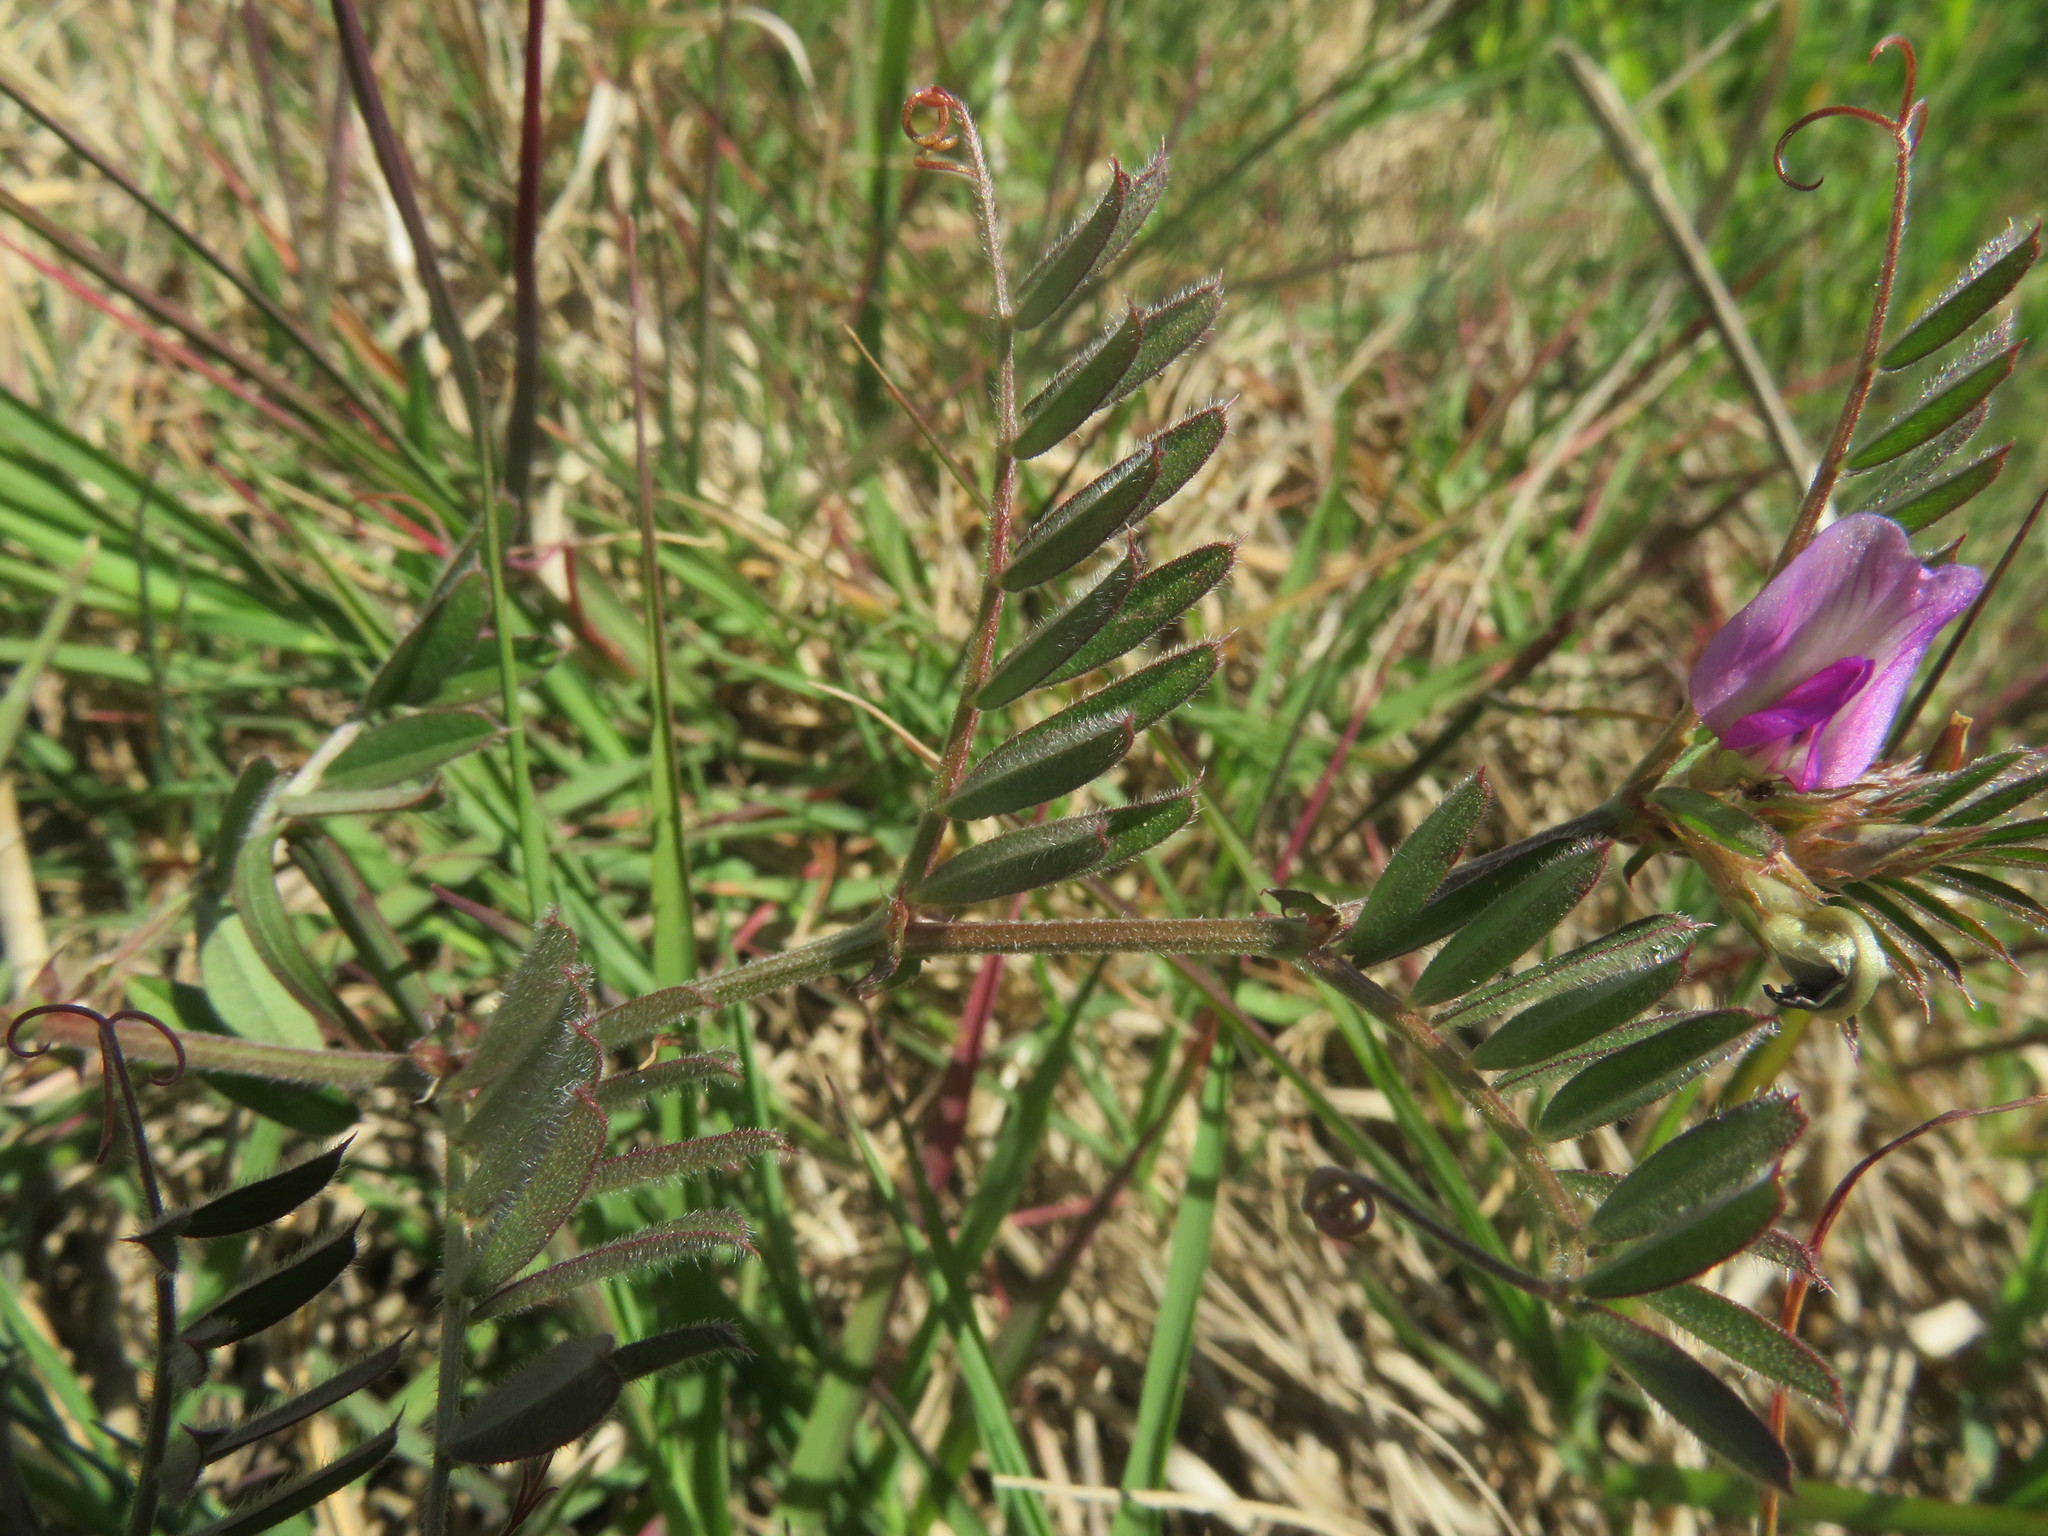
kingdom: Plantae
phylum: Tracheophyta
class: Magnoliopsida
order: Fabales
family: Fabaceae
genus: Vicia
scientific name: Vicia sativa
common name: Garden vetch
